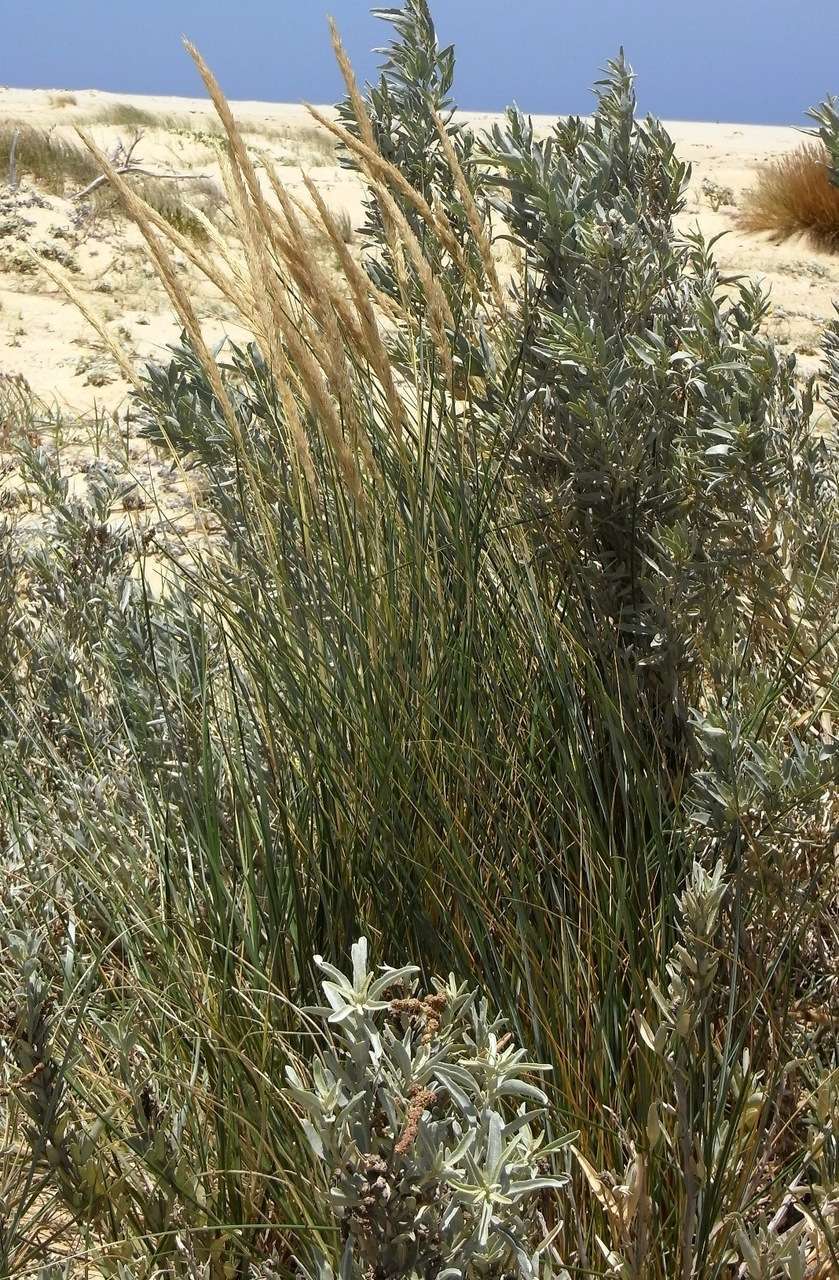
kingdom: Plantae
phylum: Tracheophyta
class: Liliopsida
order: Poales
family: Poaceae
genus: Calamagrostis
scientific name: Calamagrostis arenaria
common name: European beachgrass
